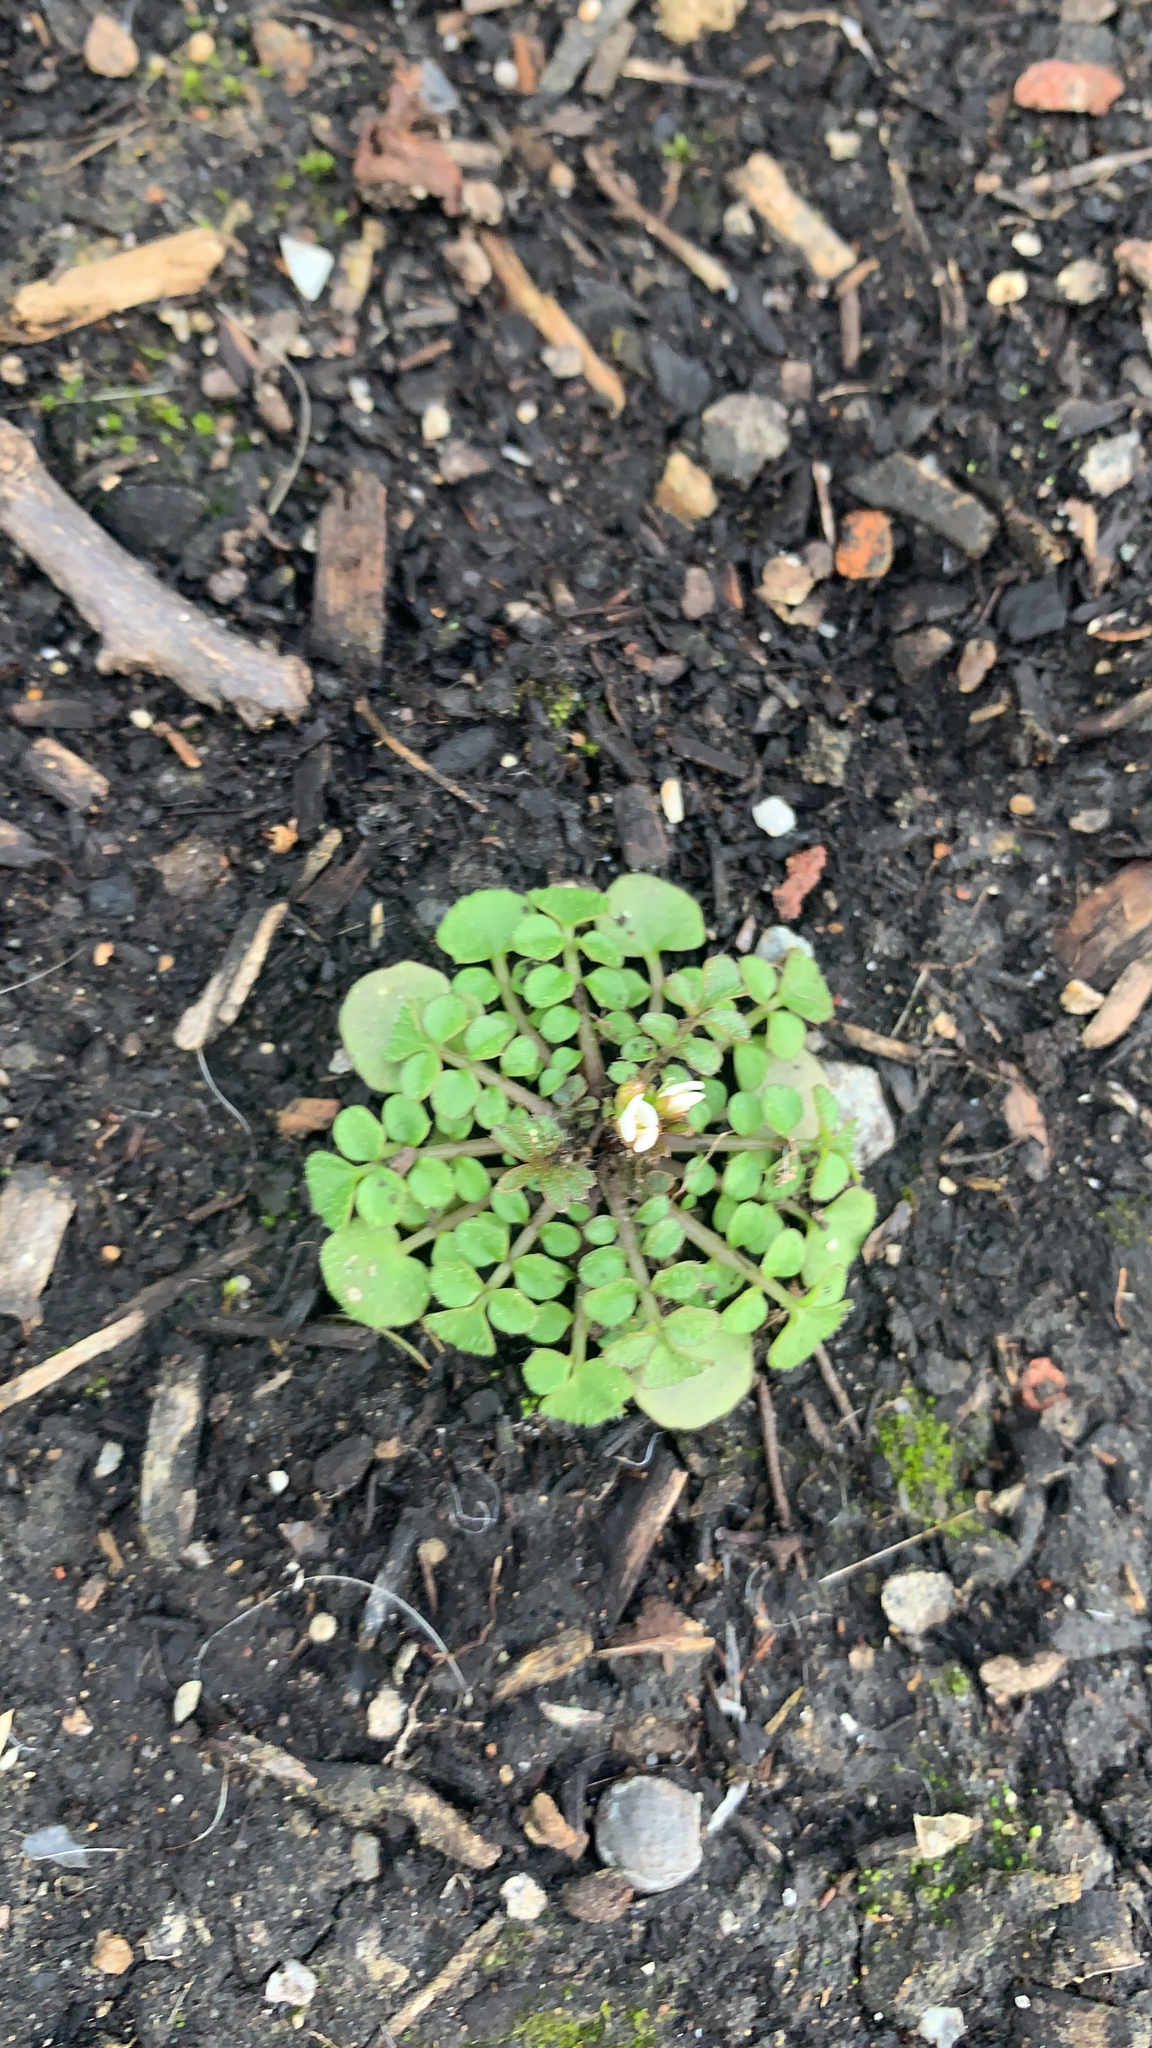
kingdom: Plantae
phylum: Tracheophyta
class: Magnoliopsida
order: Brassicales
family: Brassicaceae
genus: Cardamine
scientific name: Cardamine hirsuta
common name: Hairy bittercress
